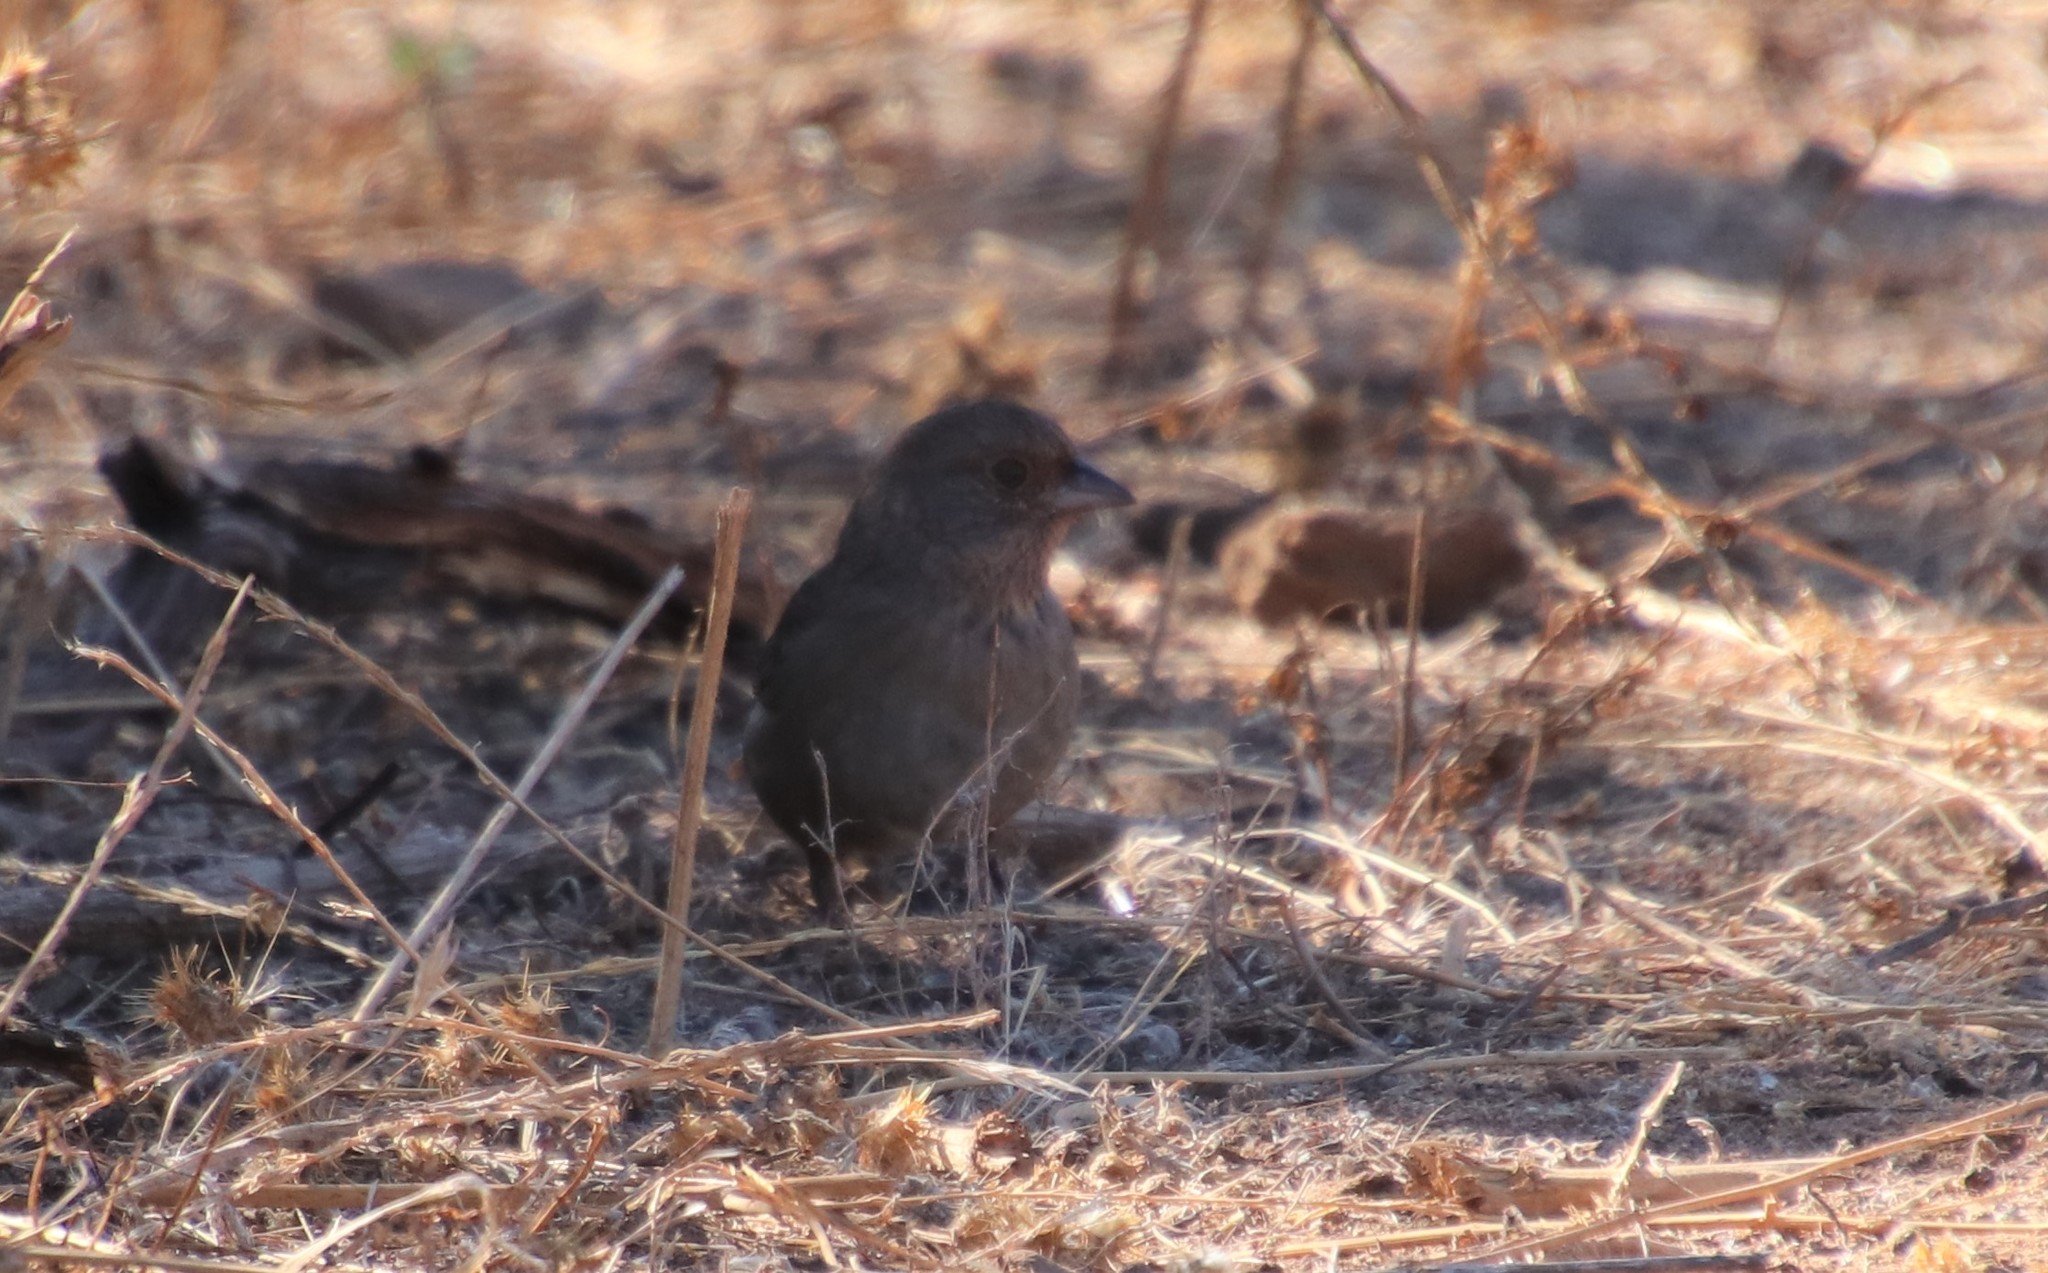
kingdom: Animalia
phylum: Chordata
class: Aves
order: Passeriformes
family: Passerellidae
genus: Melozone
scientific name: Melozone crissalis
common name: California towhee
